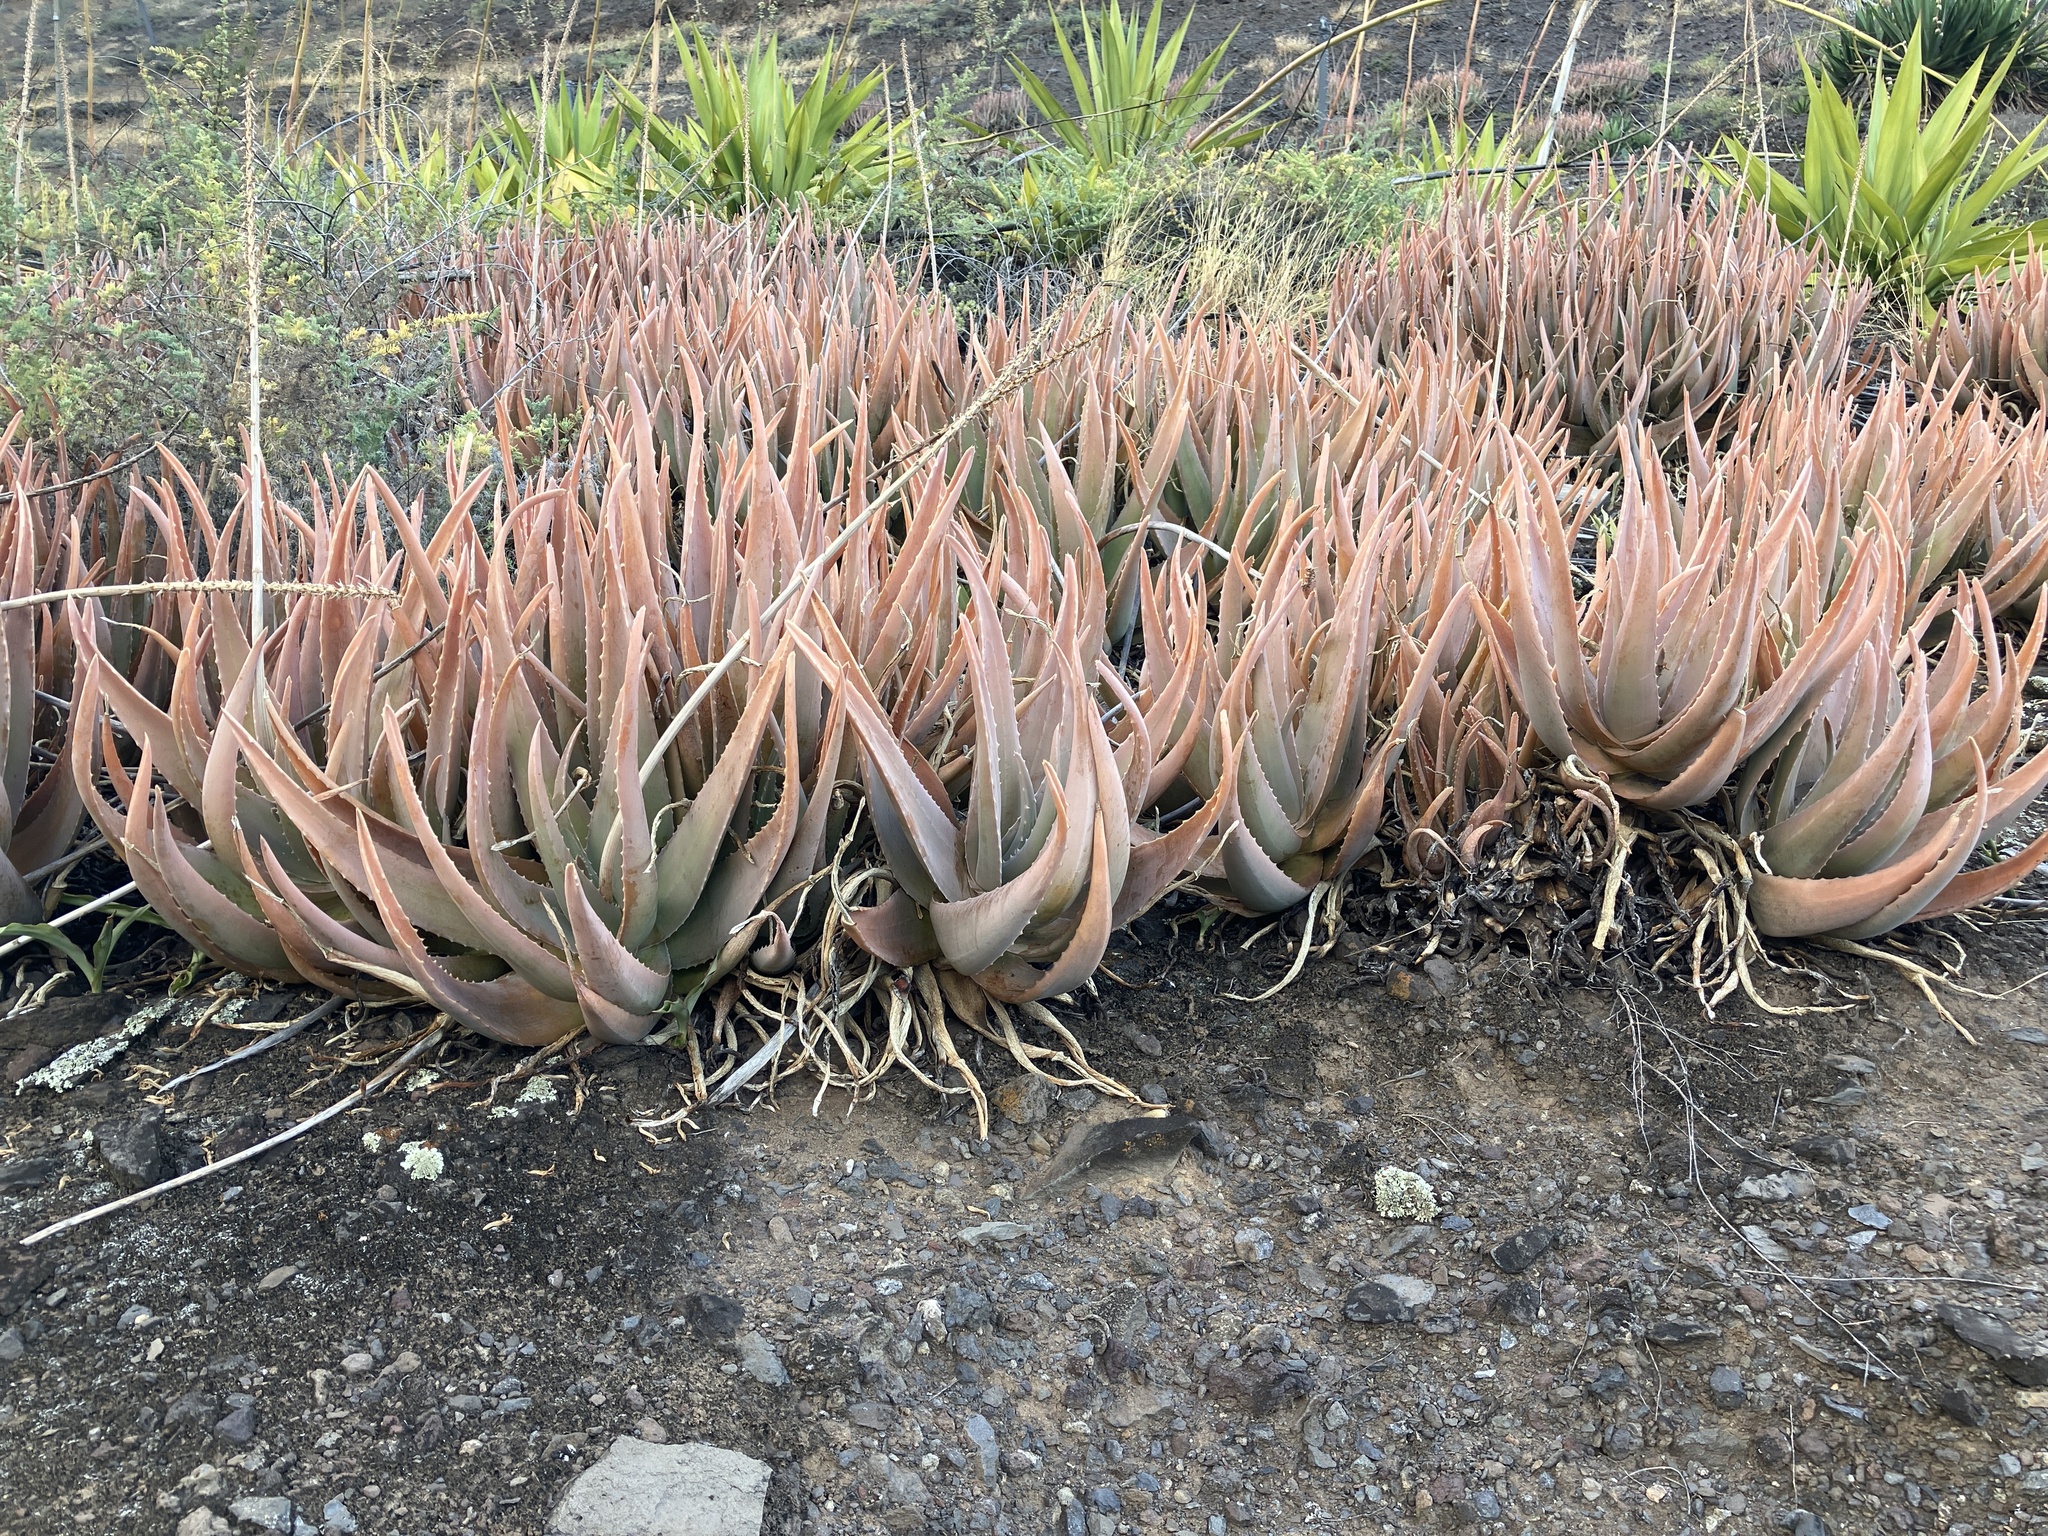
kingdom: Plantae
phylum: Tracheophyta
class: Liliopsida
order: Asparagales
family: Asphodelaceae
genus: Aloe
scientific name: Aloe vera
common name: Barbados aloe
